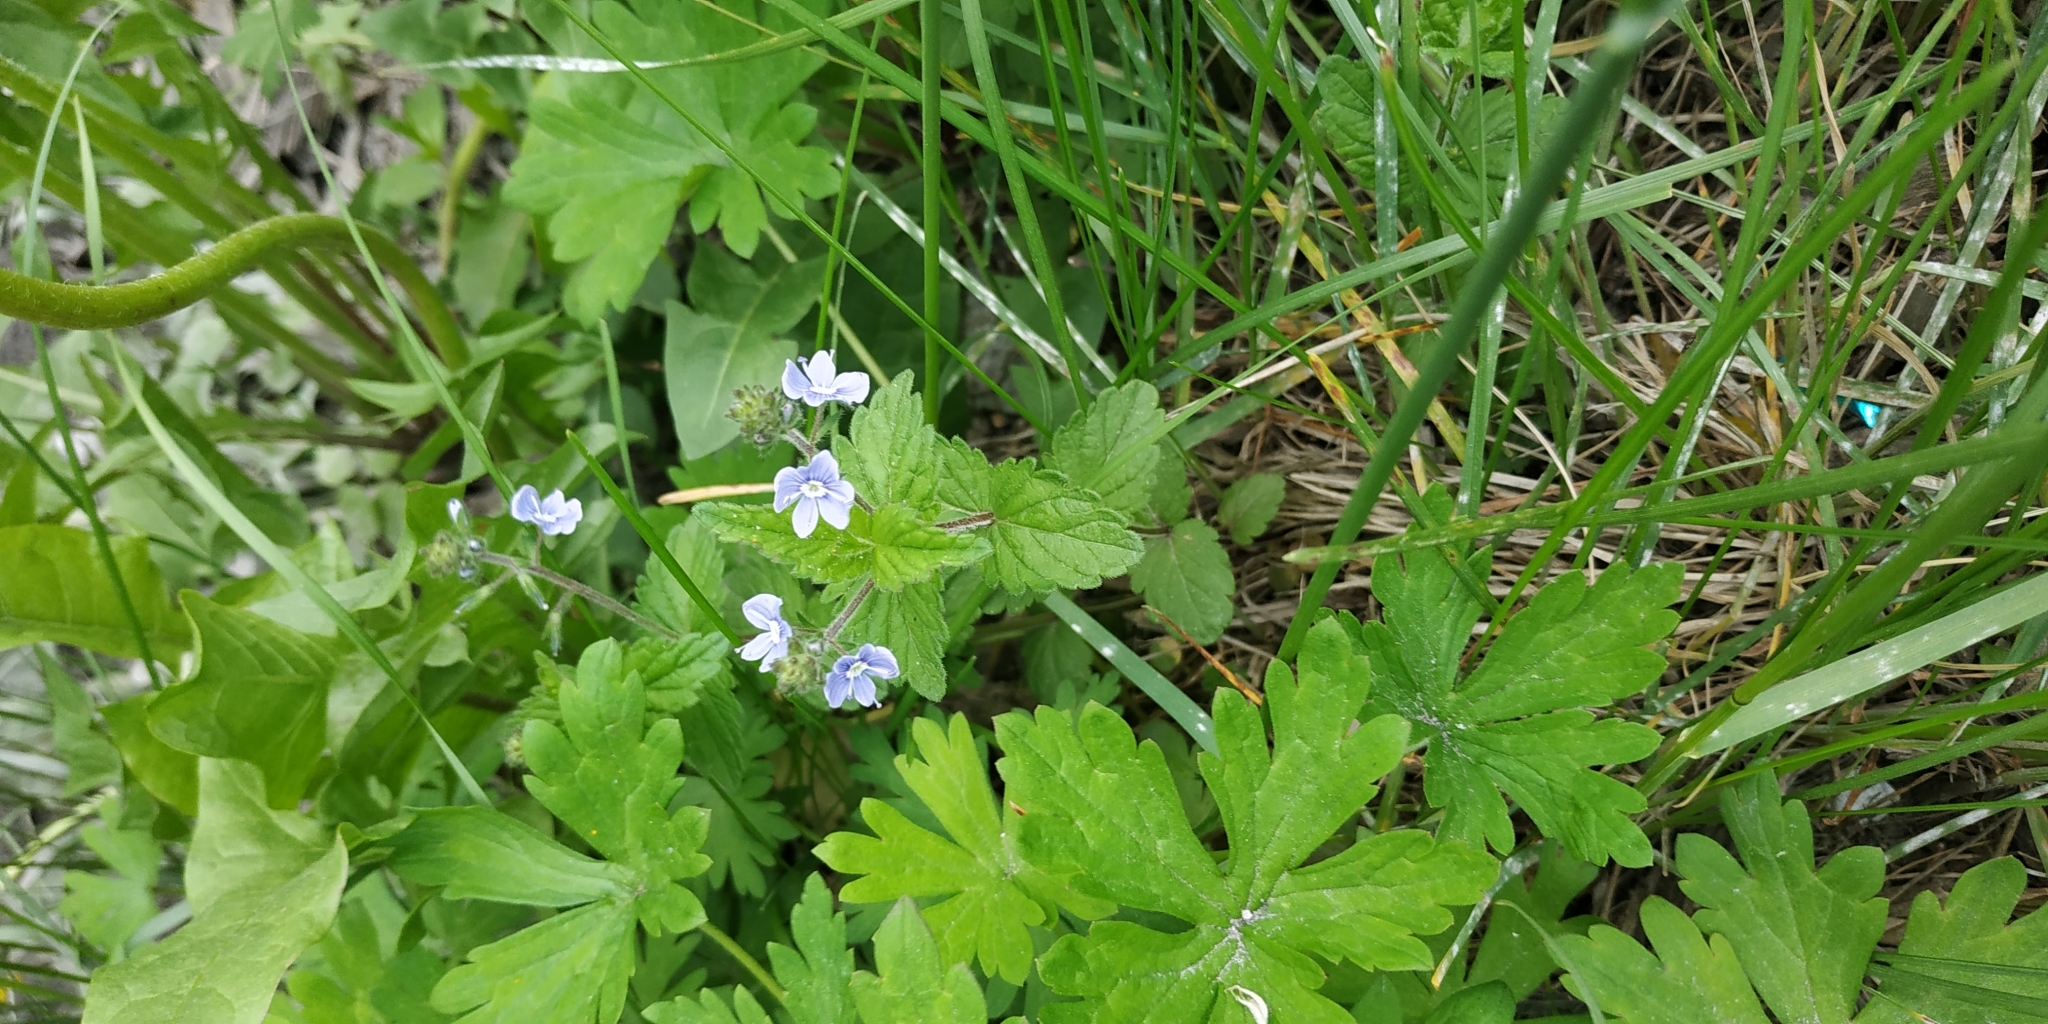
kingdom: Plantae
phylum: Tracheophyta
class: Magnoliopsida
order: Lamiales
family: Plantaginaceae
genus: Veronica
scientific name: Veronica chamaedrys
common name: Germander speedwell
